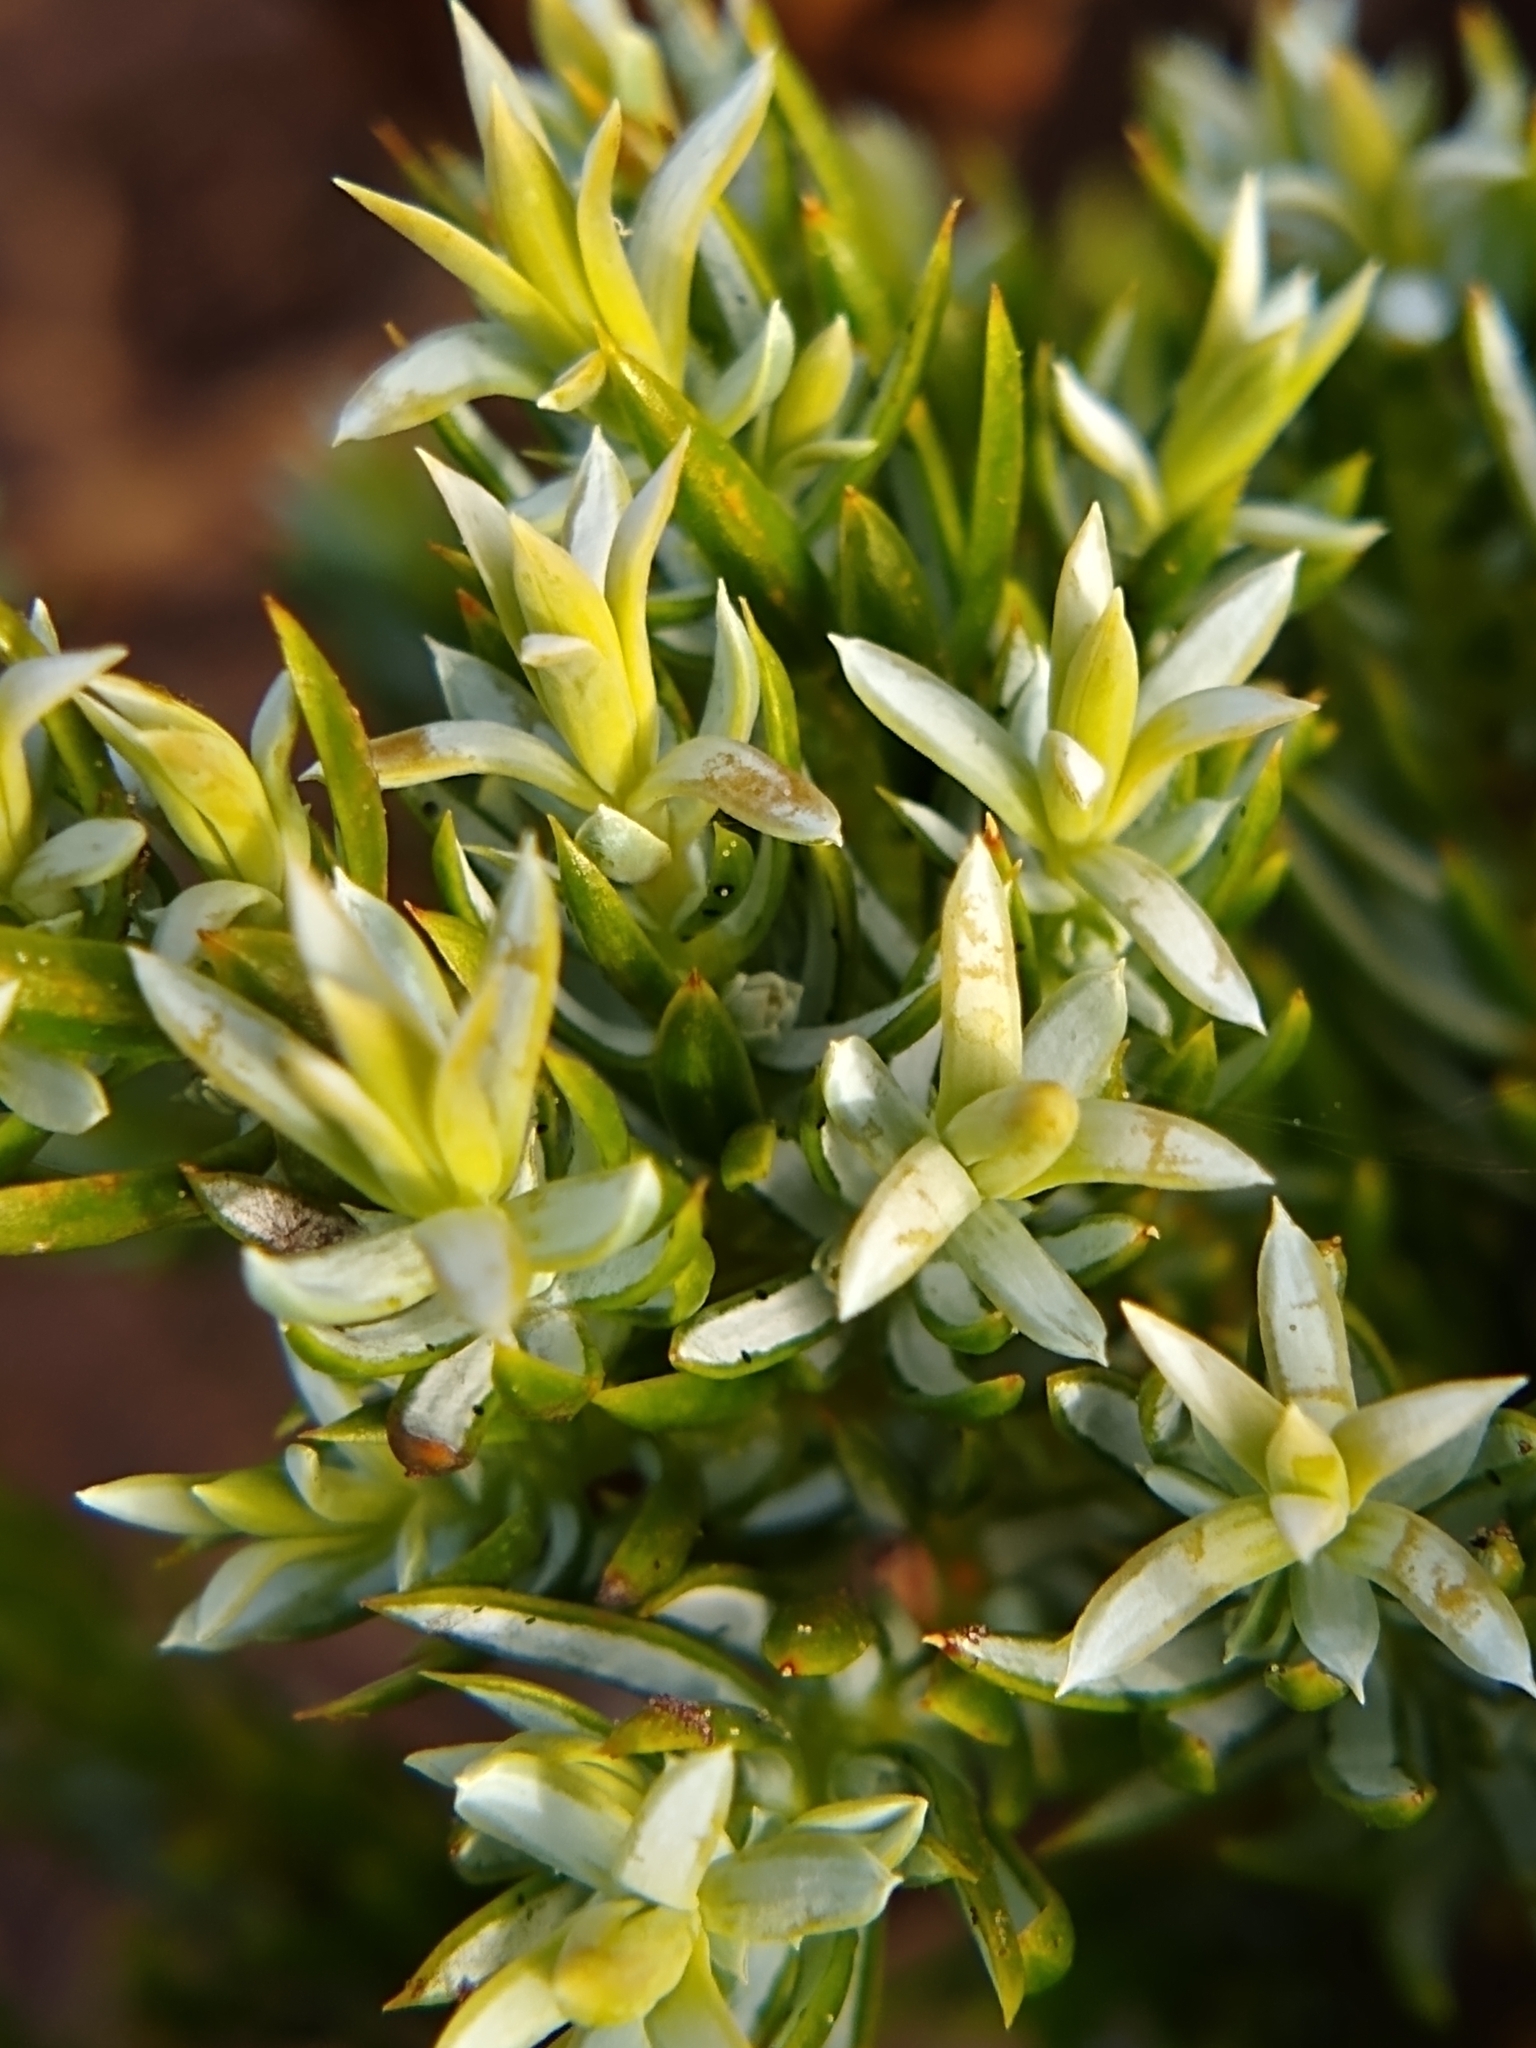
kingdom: Plantae
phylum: Tracheophyta
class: Pinopsida
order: Pinales
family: Cupressaceae
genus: Juniperus
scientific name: Juniperus communis
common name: Common juniper
